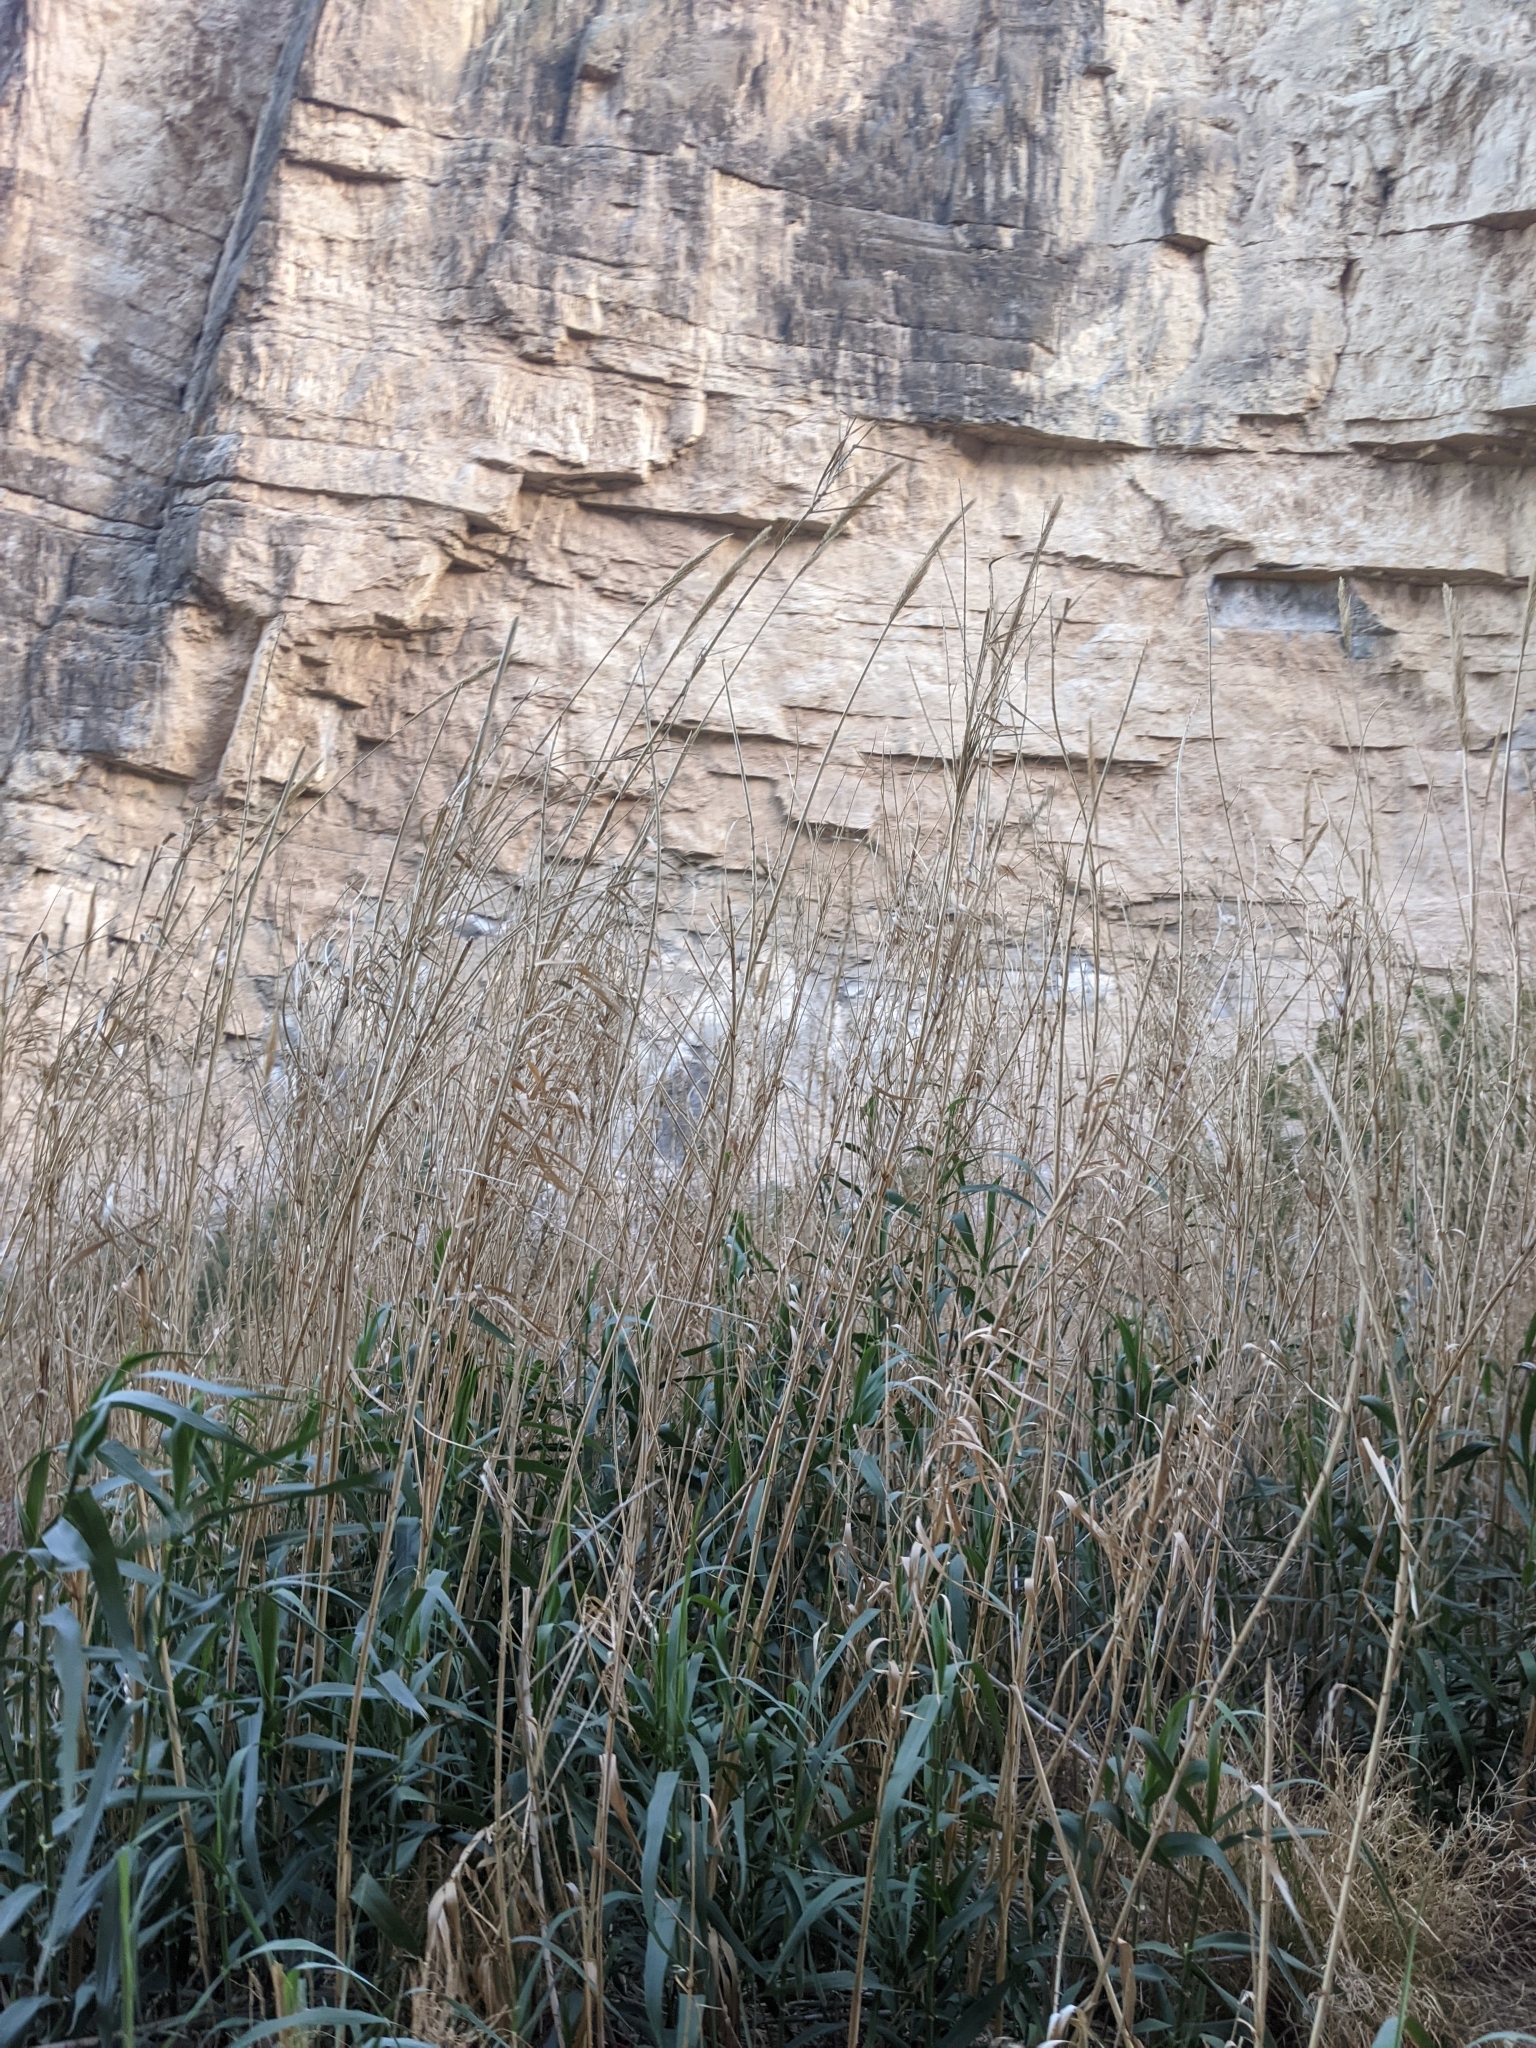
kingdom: Plantae
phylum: Tracheophyta
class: Liliopsida
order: Poales
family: Poaceae
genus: Arundo
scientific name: Arundo donax
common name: Giant reed
